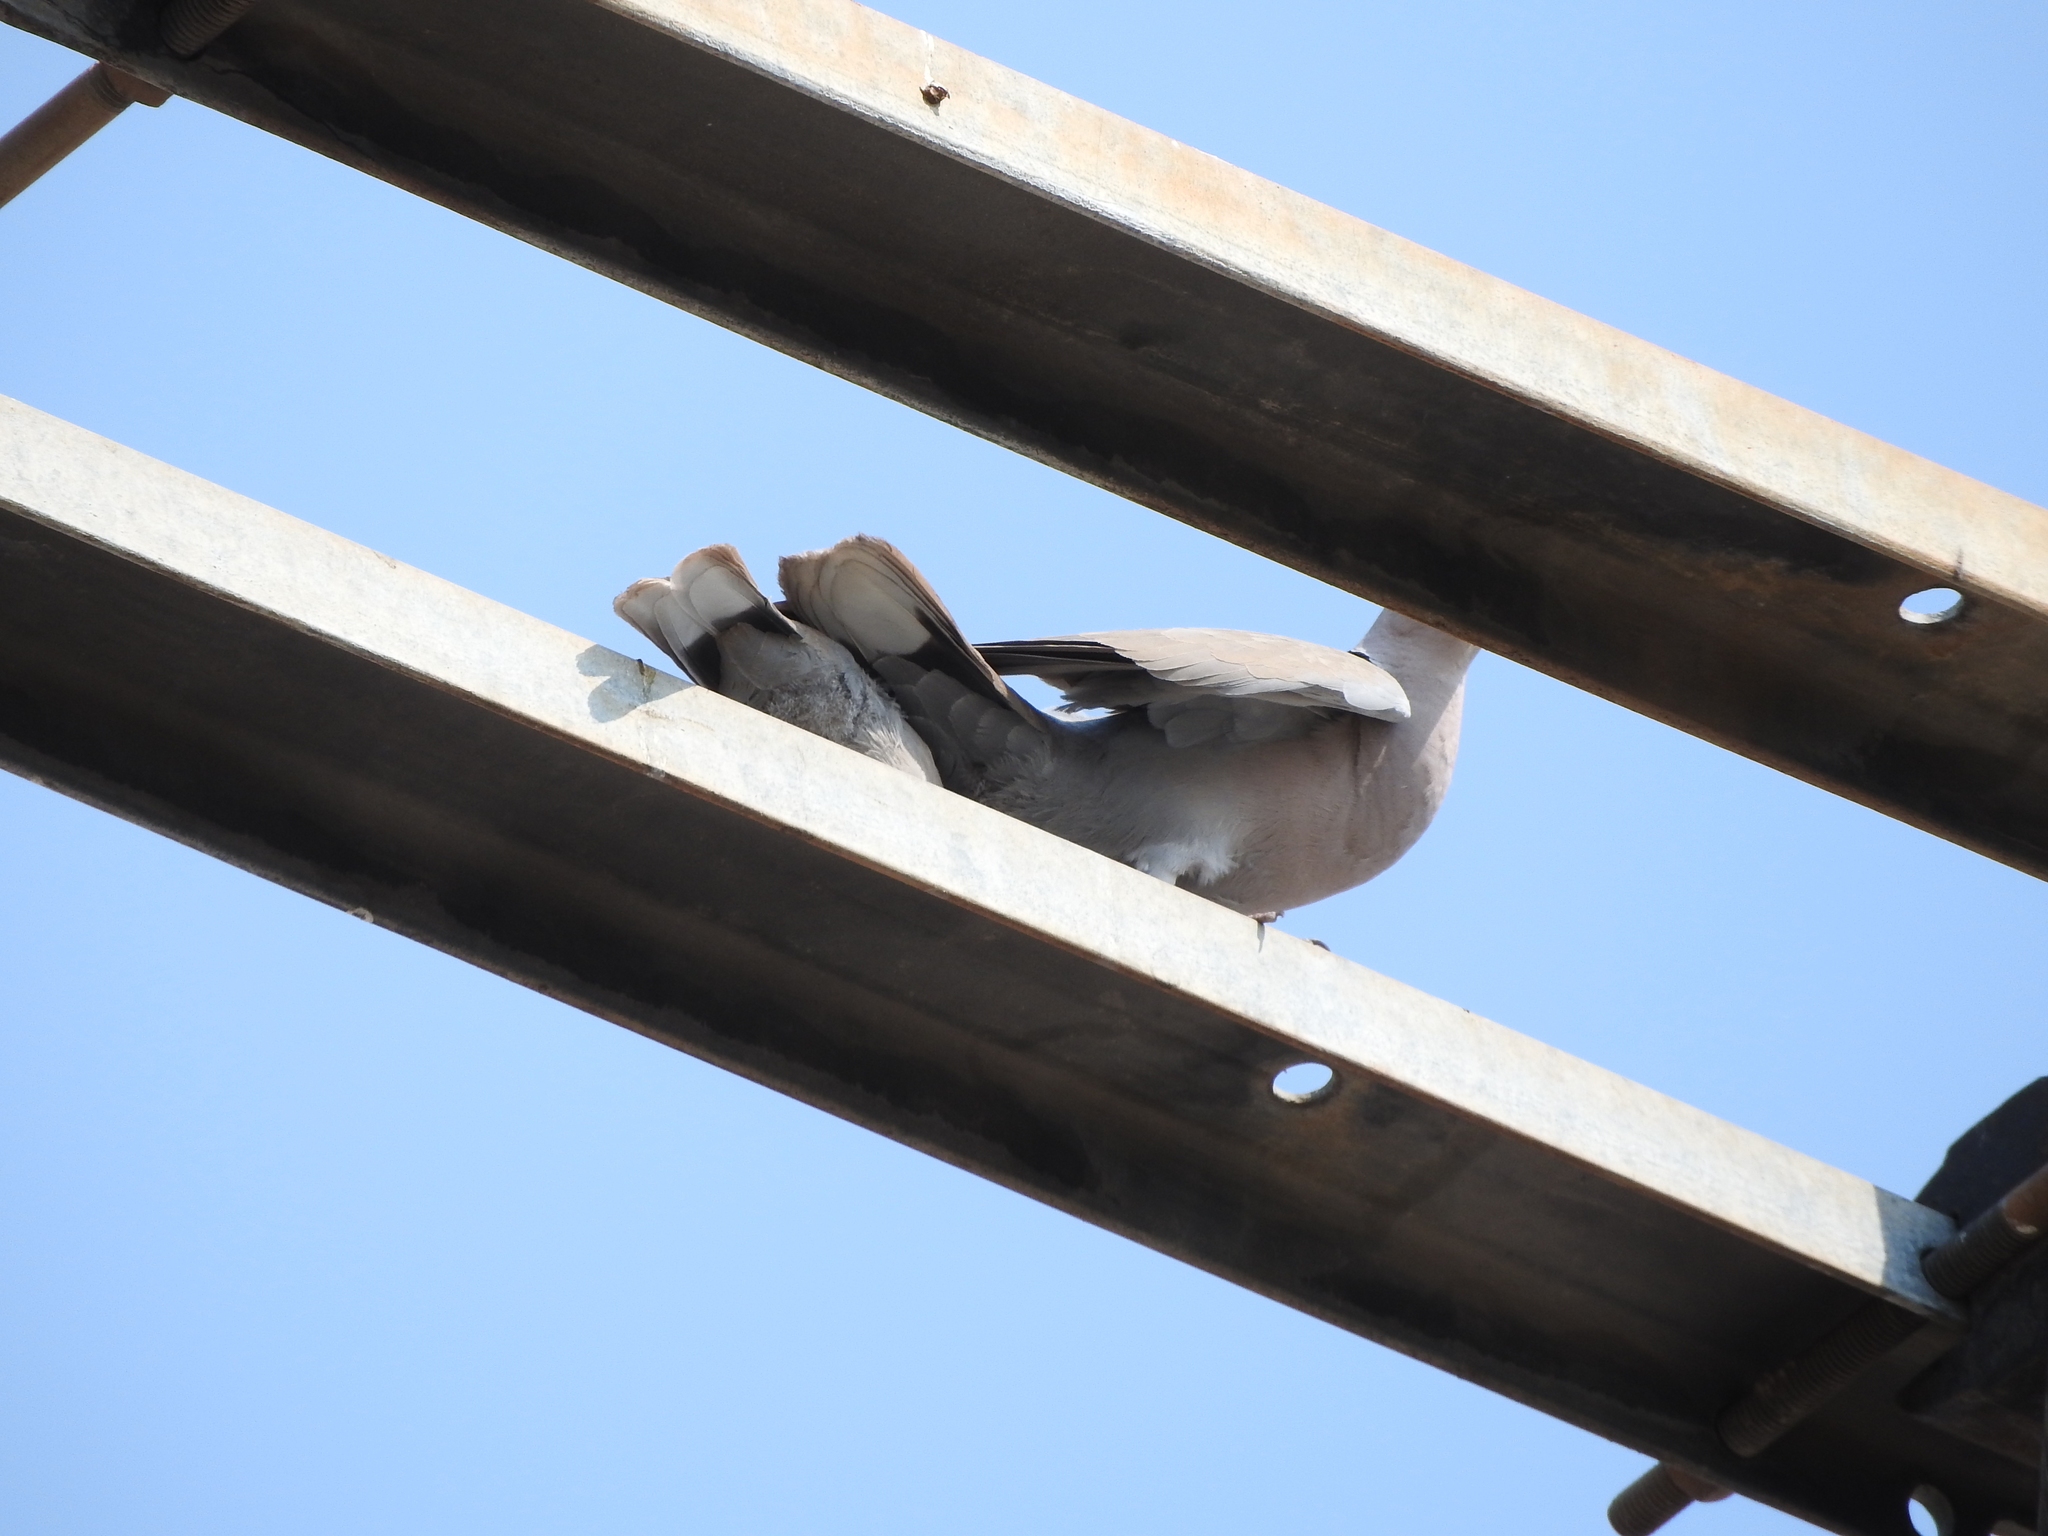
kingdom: Animalia
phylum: Chordata
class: Aves
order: Columbiformes
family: Columbidae
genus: Streptopelia
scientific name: Streptopelia decaocto
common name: Eurasian collared dove
